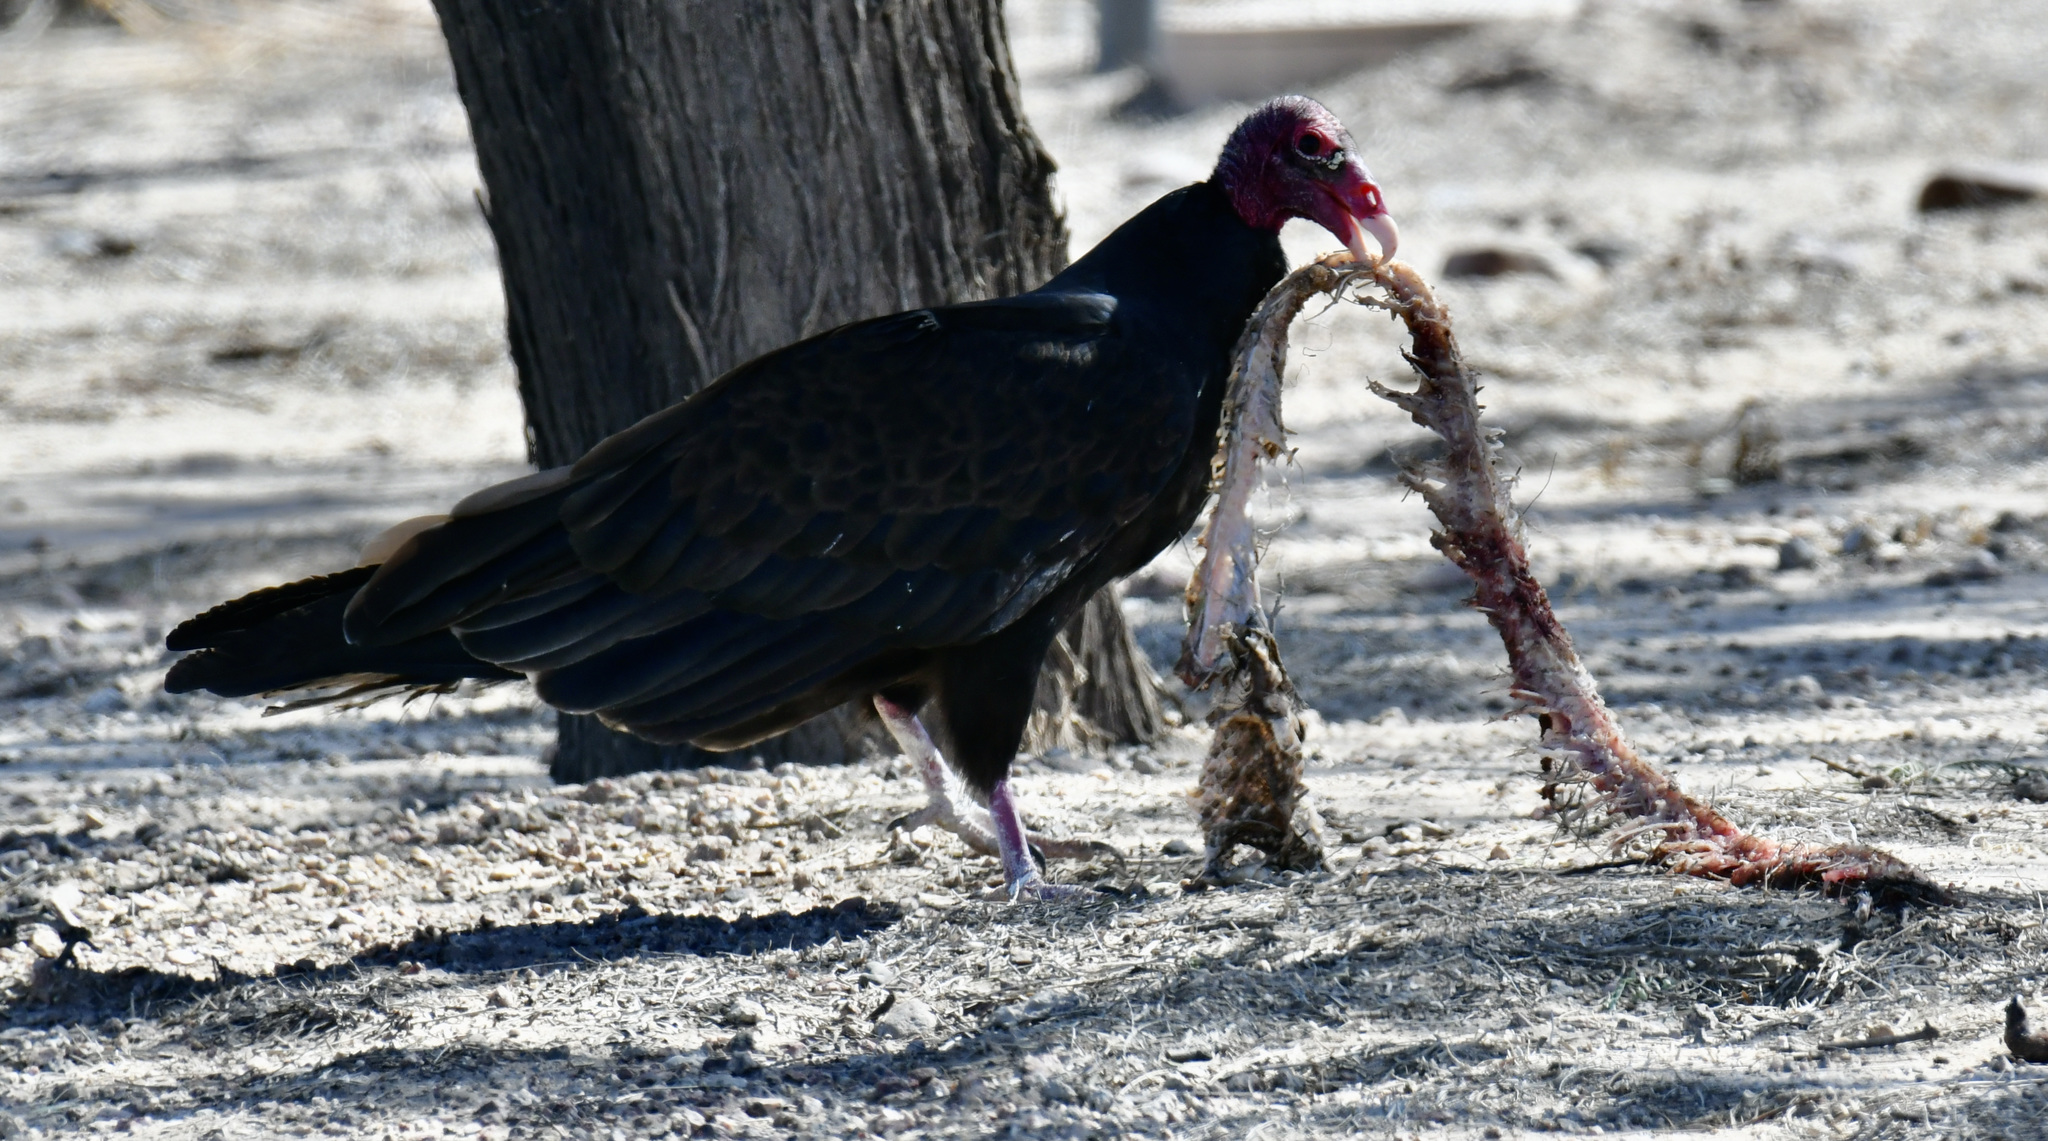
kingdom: Animalia
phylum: Chordata
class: Aves
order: Accipitriformes
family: Cathartidae
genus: Cathartes
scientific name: Cathartes aura
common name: Turkey vulture
